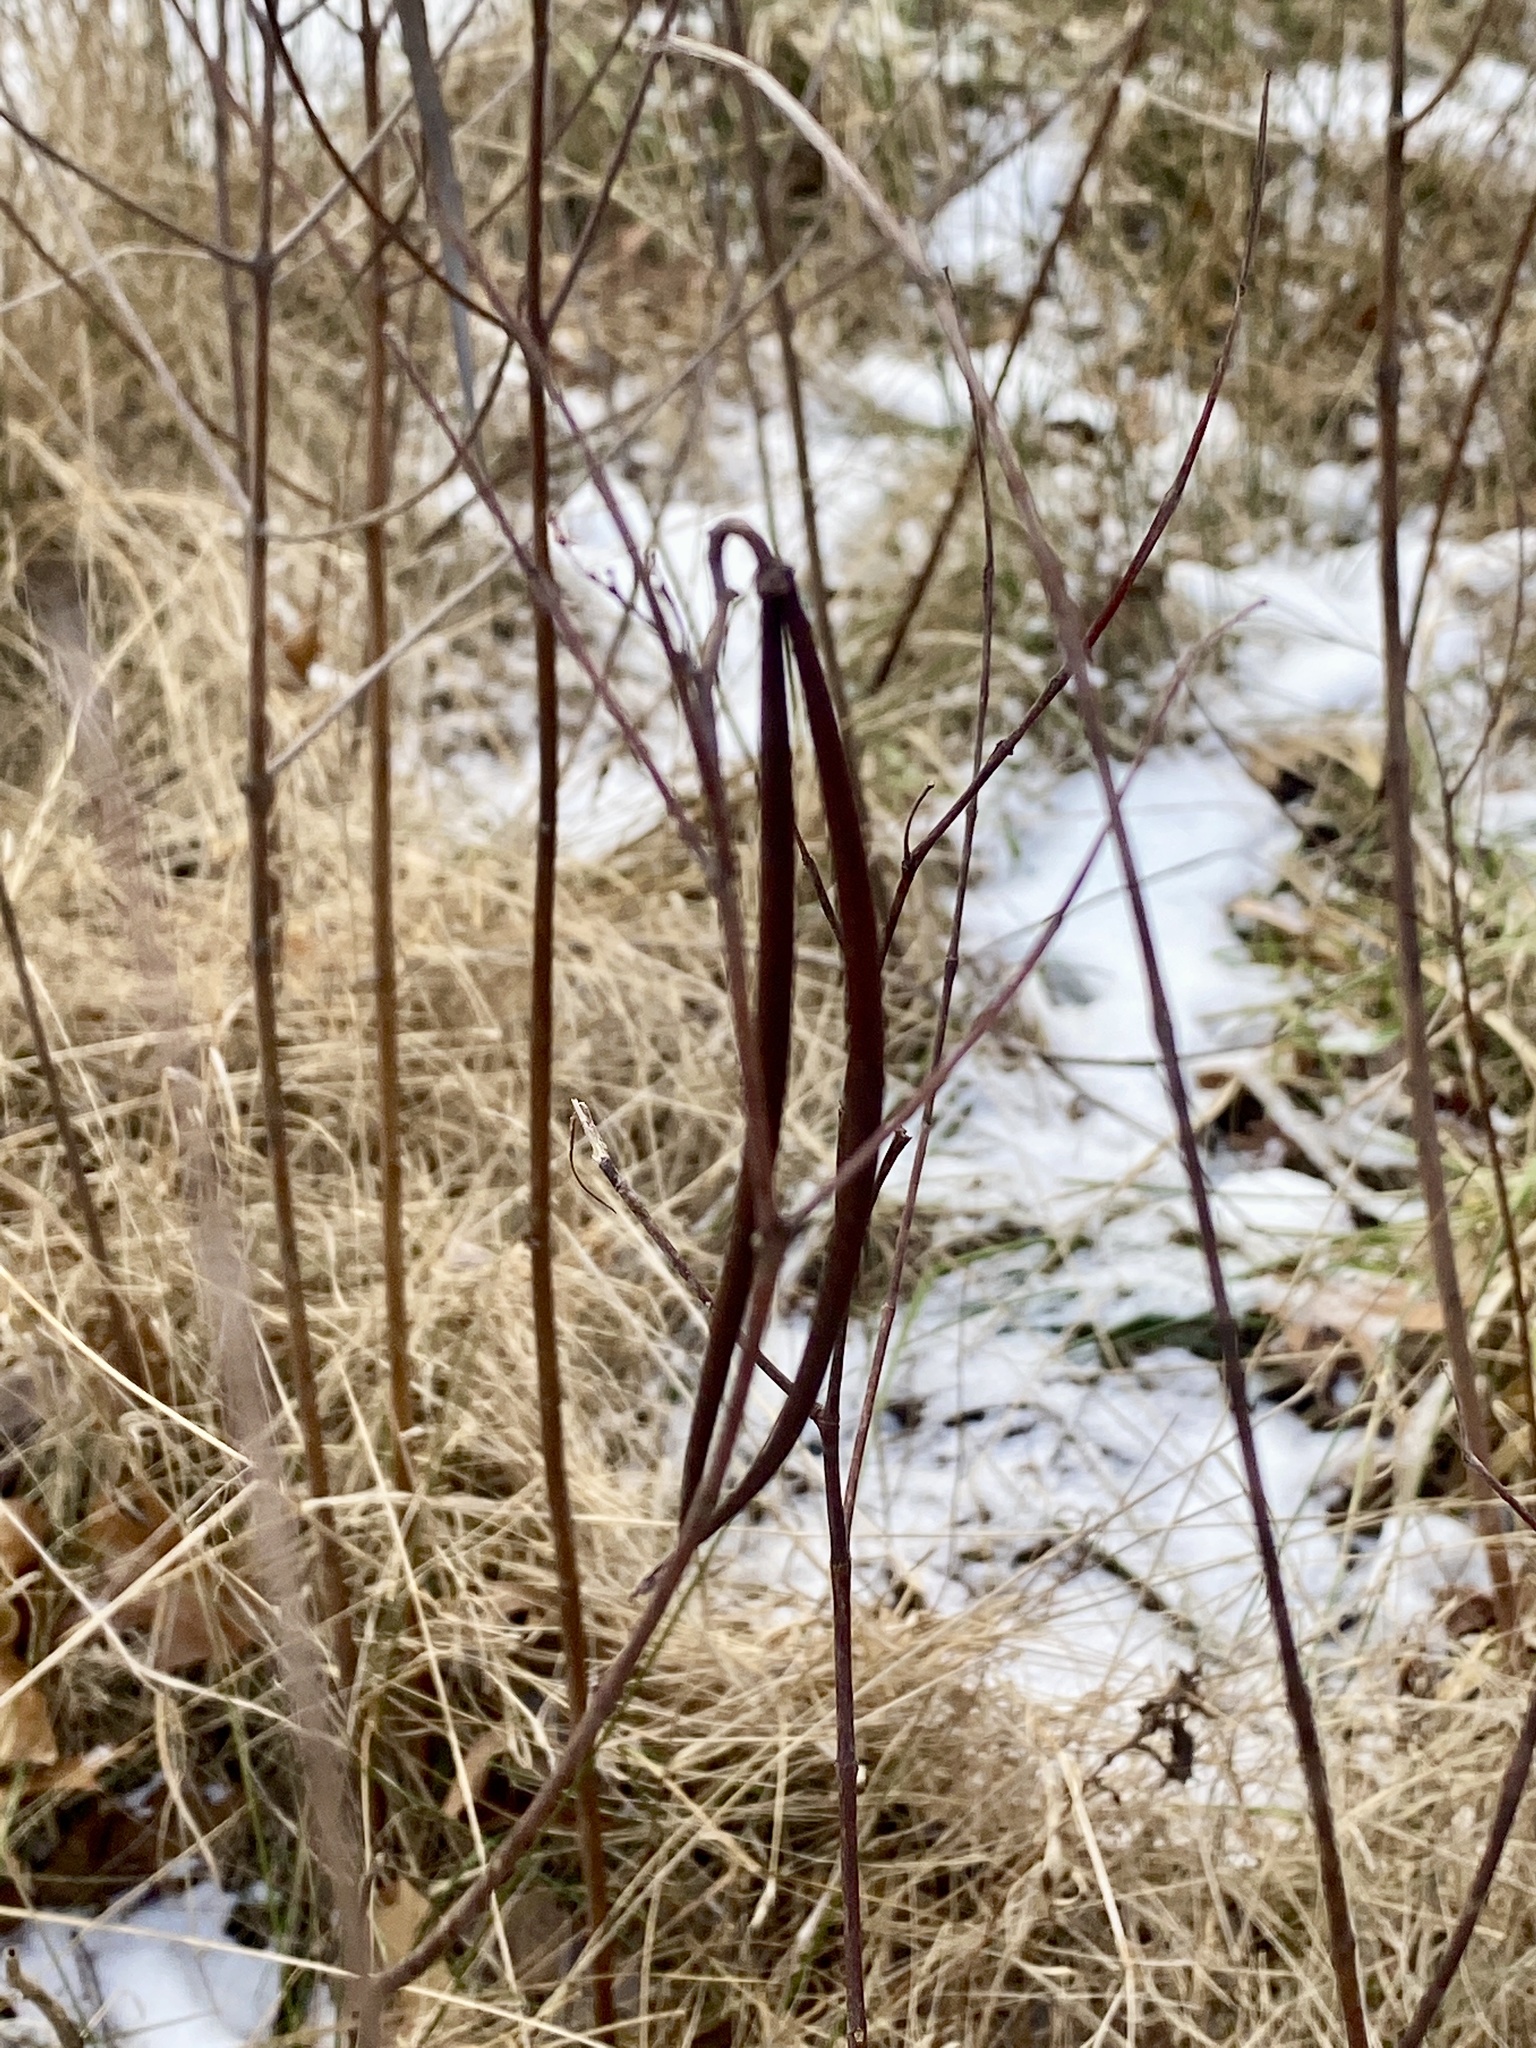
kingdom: Plantae
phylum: Tracheophyta
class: Magnoliopsida
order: Gentianales
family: Apocynaceae
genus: Apocynum
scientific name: Apocynum cannabinum
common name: Hemp dogbane
